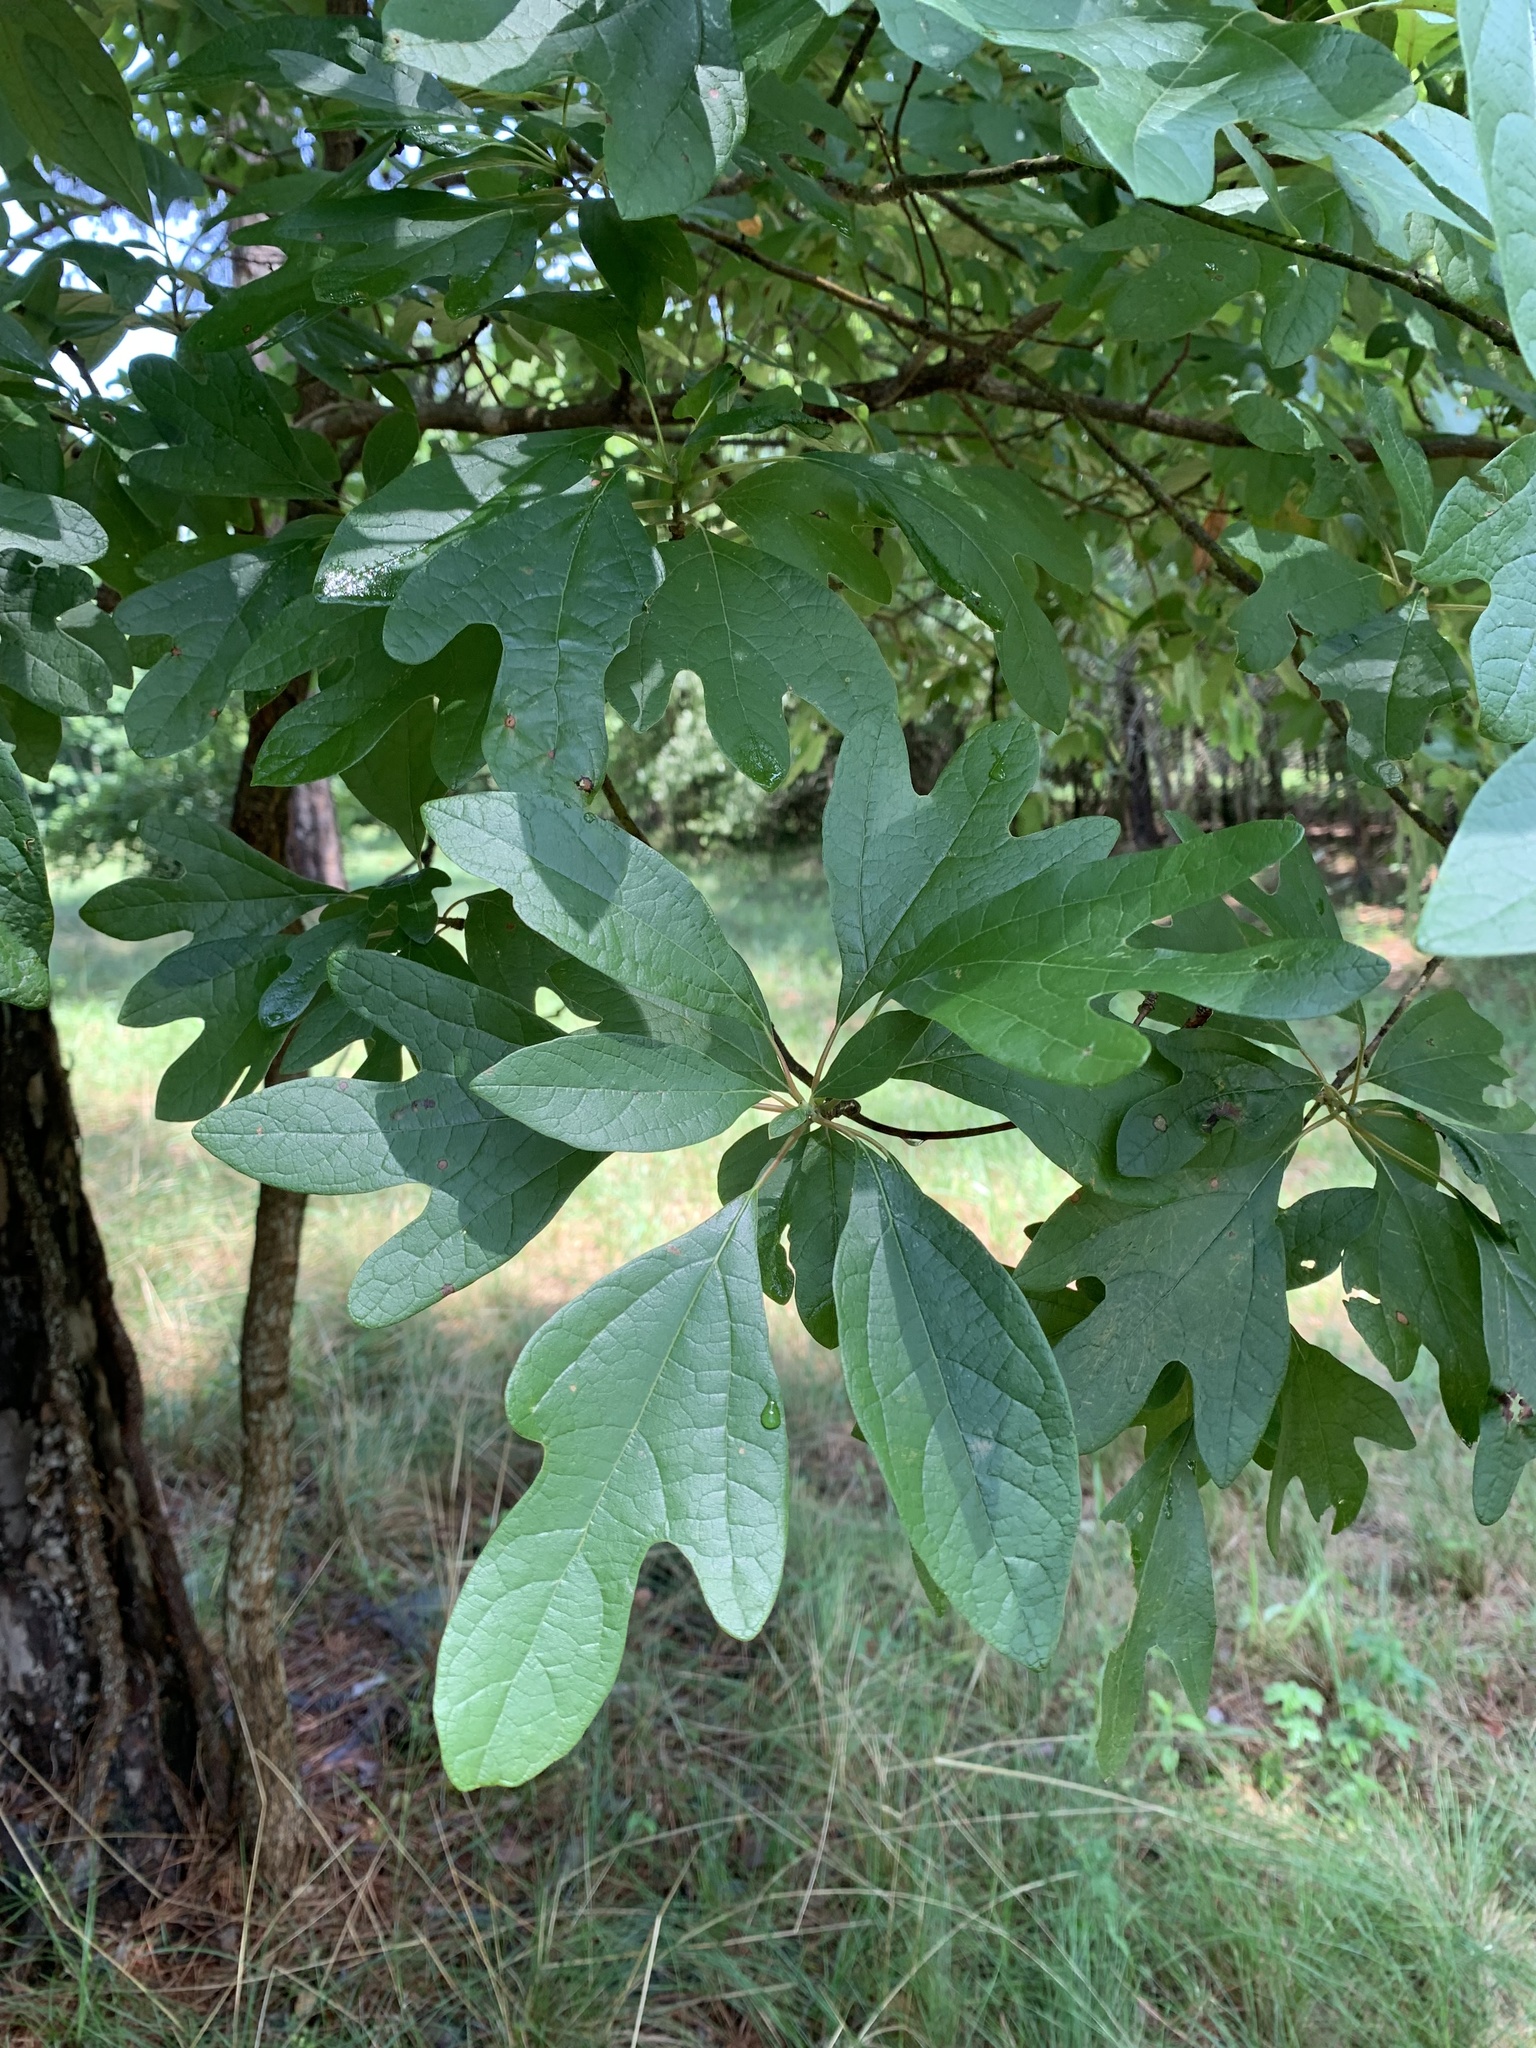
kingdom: Plantae
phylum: Tracheophyta
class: Magnoliopsida
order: Laurales
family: Lauraceae
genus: Sassafras
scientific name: Sassafras albidum
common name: Sassafras
